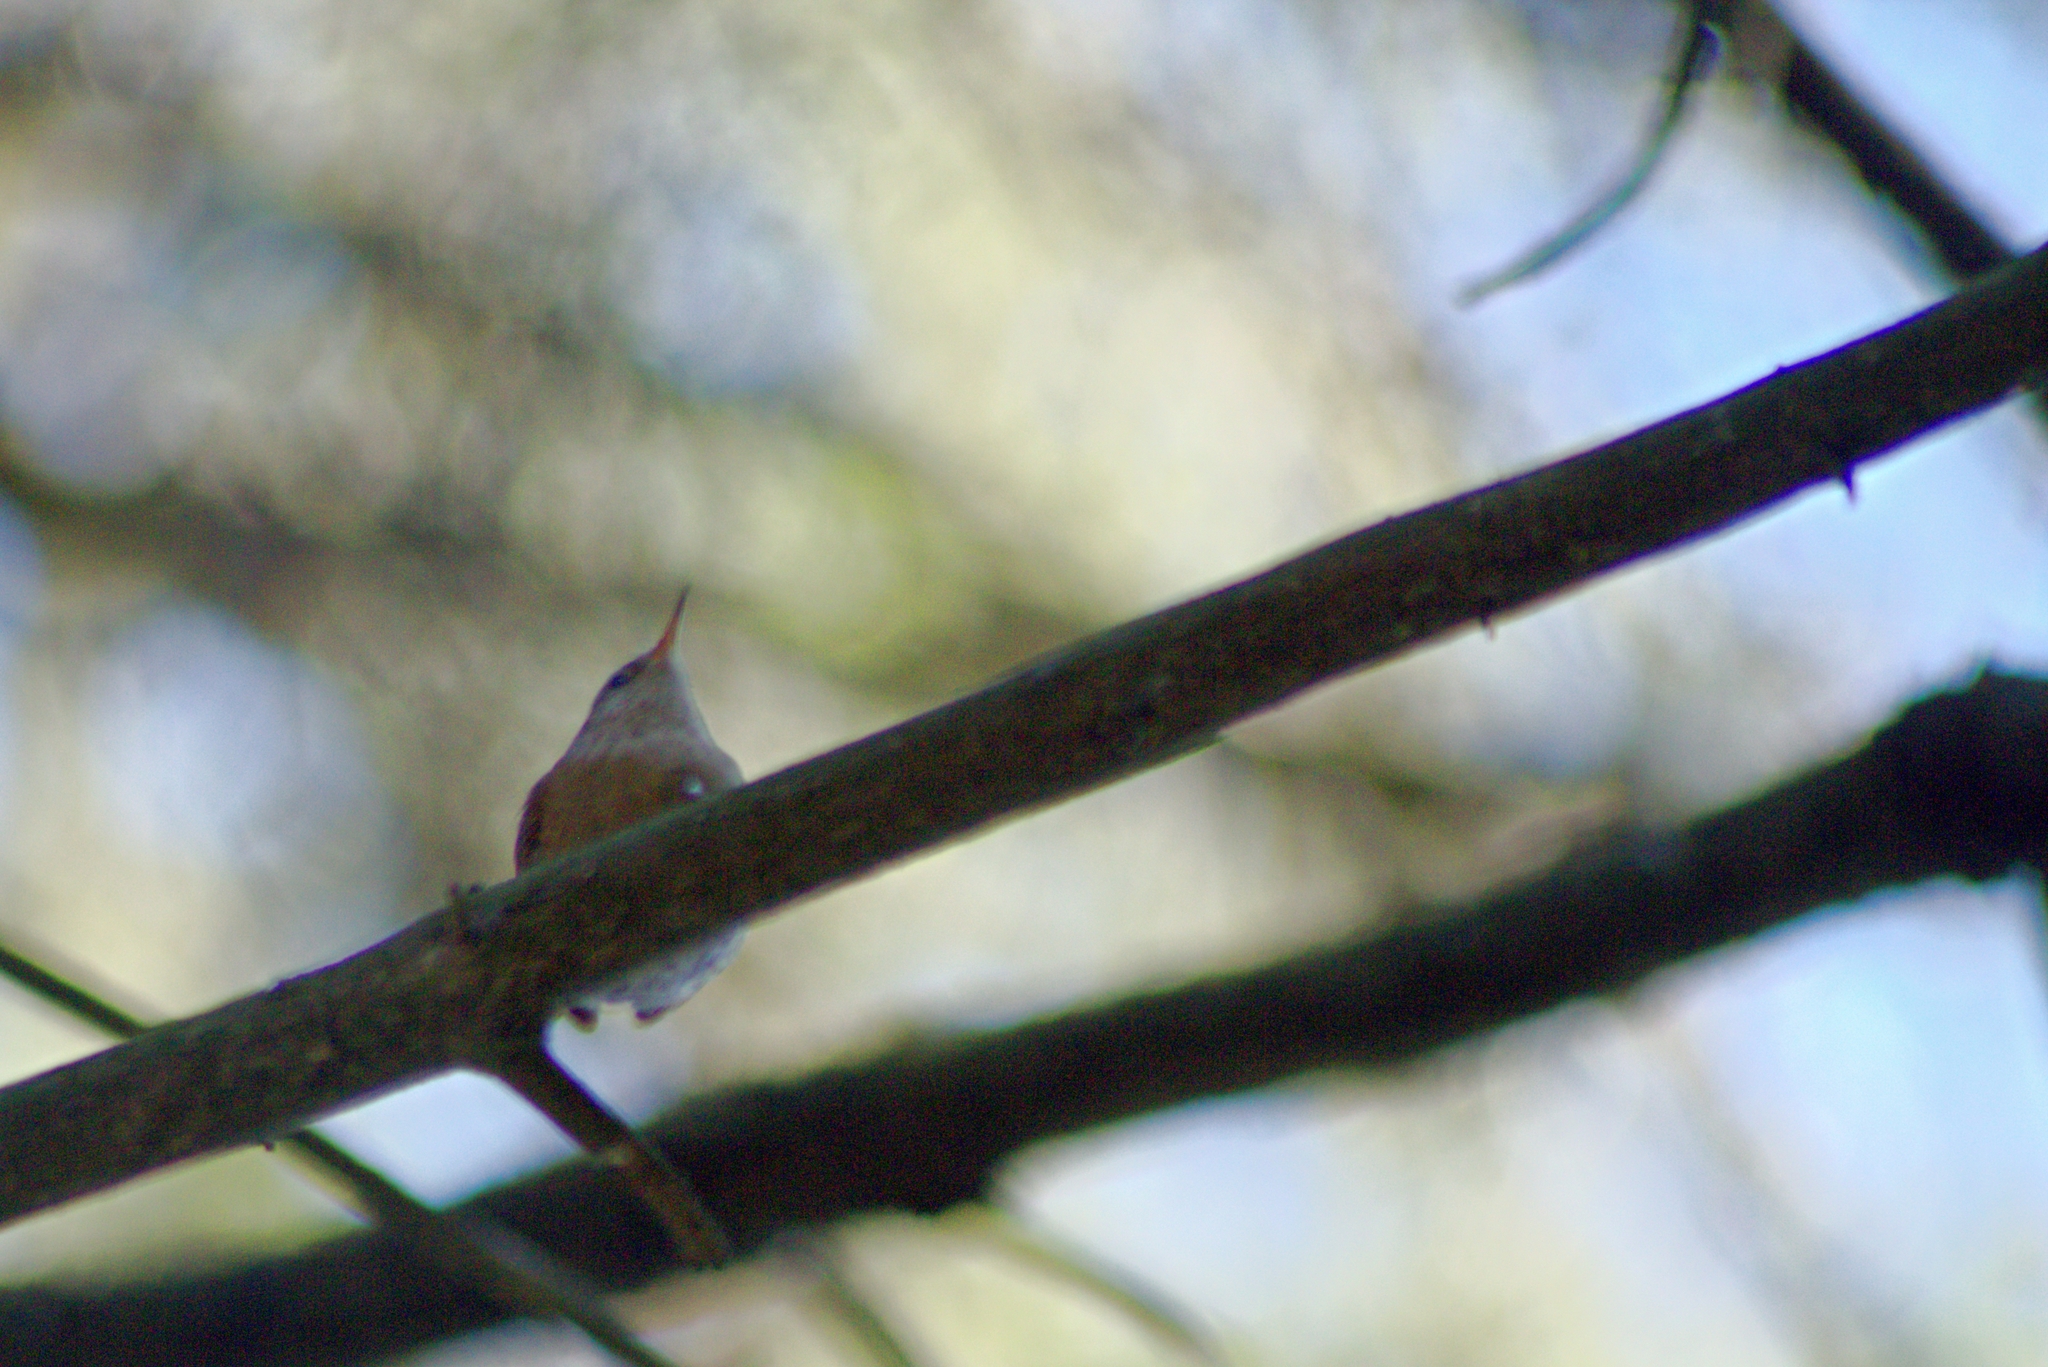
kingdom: Animalia
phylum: Chordata
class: Aves
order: Passeriformes
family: Troglodytidae
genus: Troglodytes
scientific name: Troglodytes troglodytes
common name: Eurasian wren
